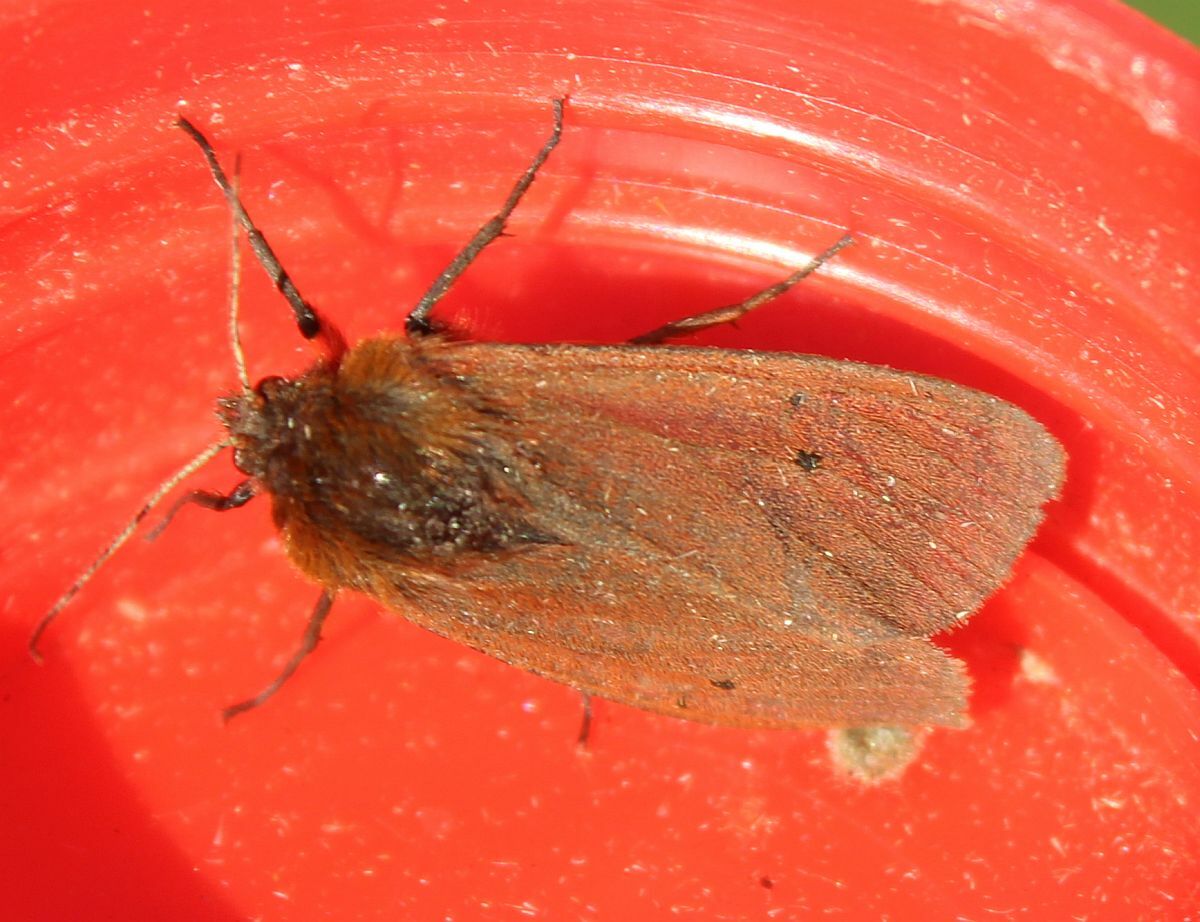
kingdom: Animalia
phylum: Arthropoda
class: Insecta
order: Lepidoptera
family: Erebidae
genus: Phragmatobia
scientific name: Phragmatobia fuliginosa
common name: Ruby tiger
